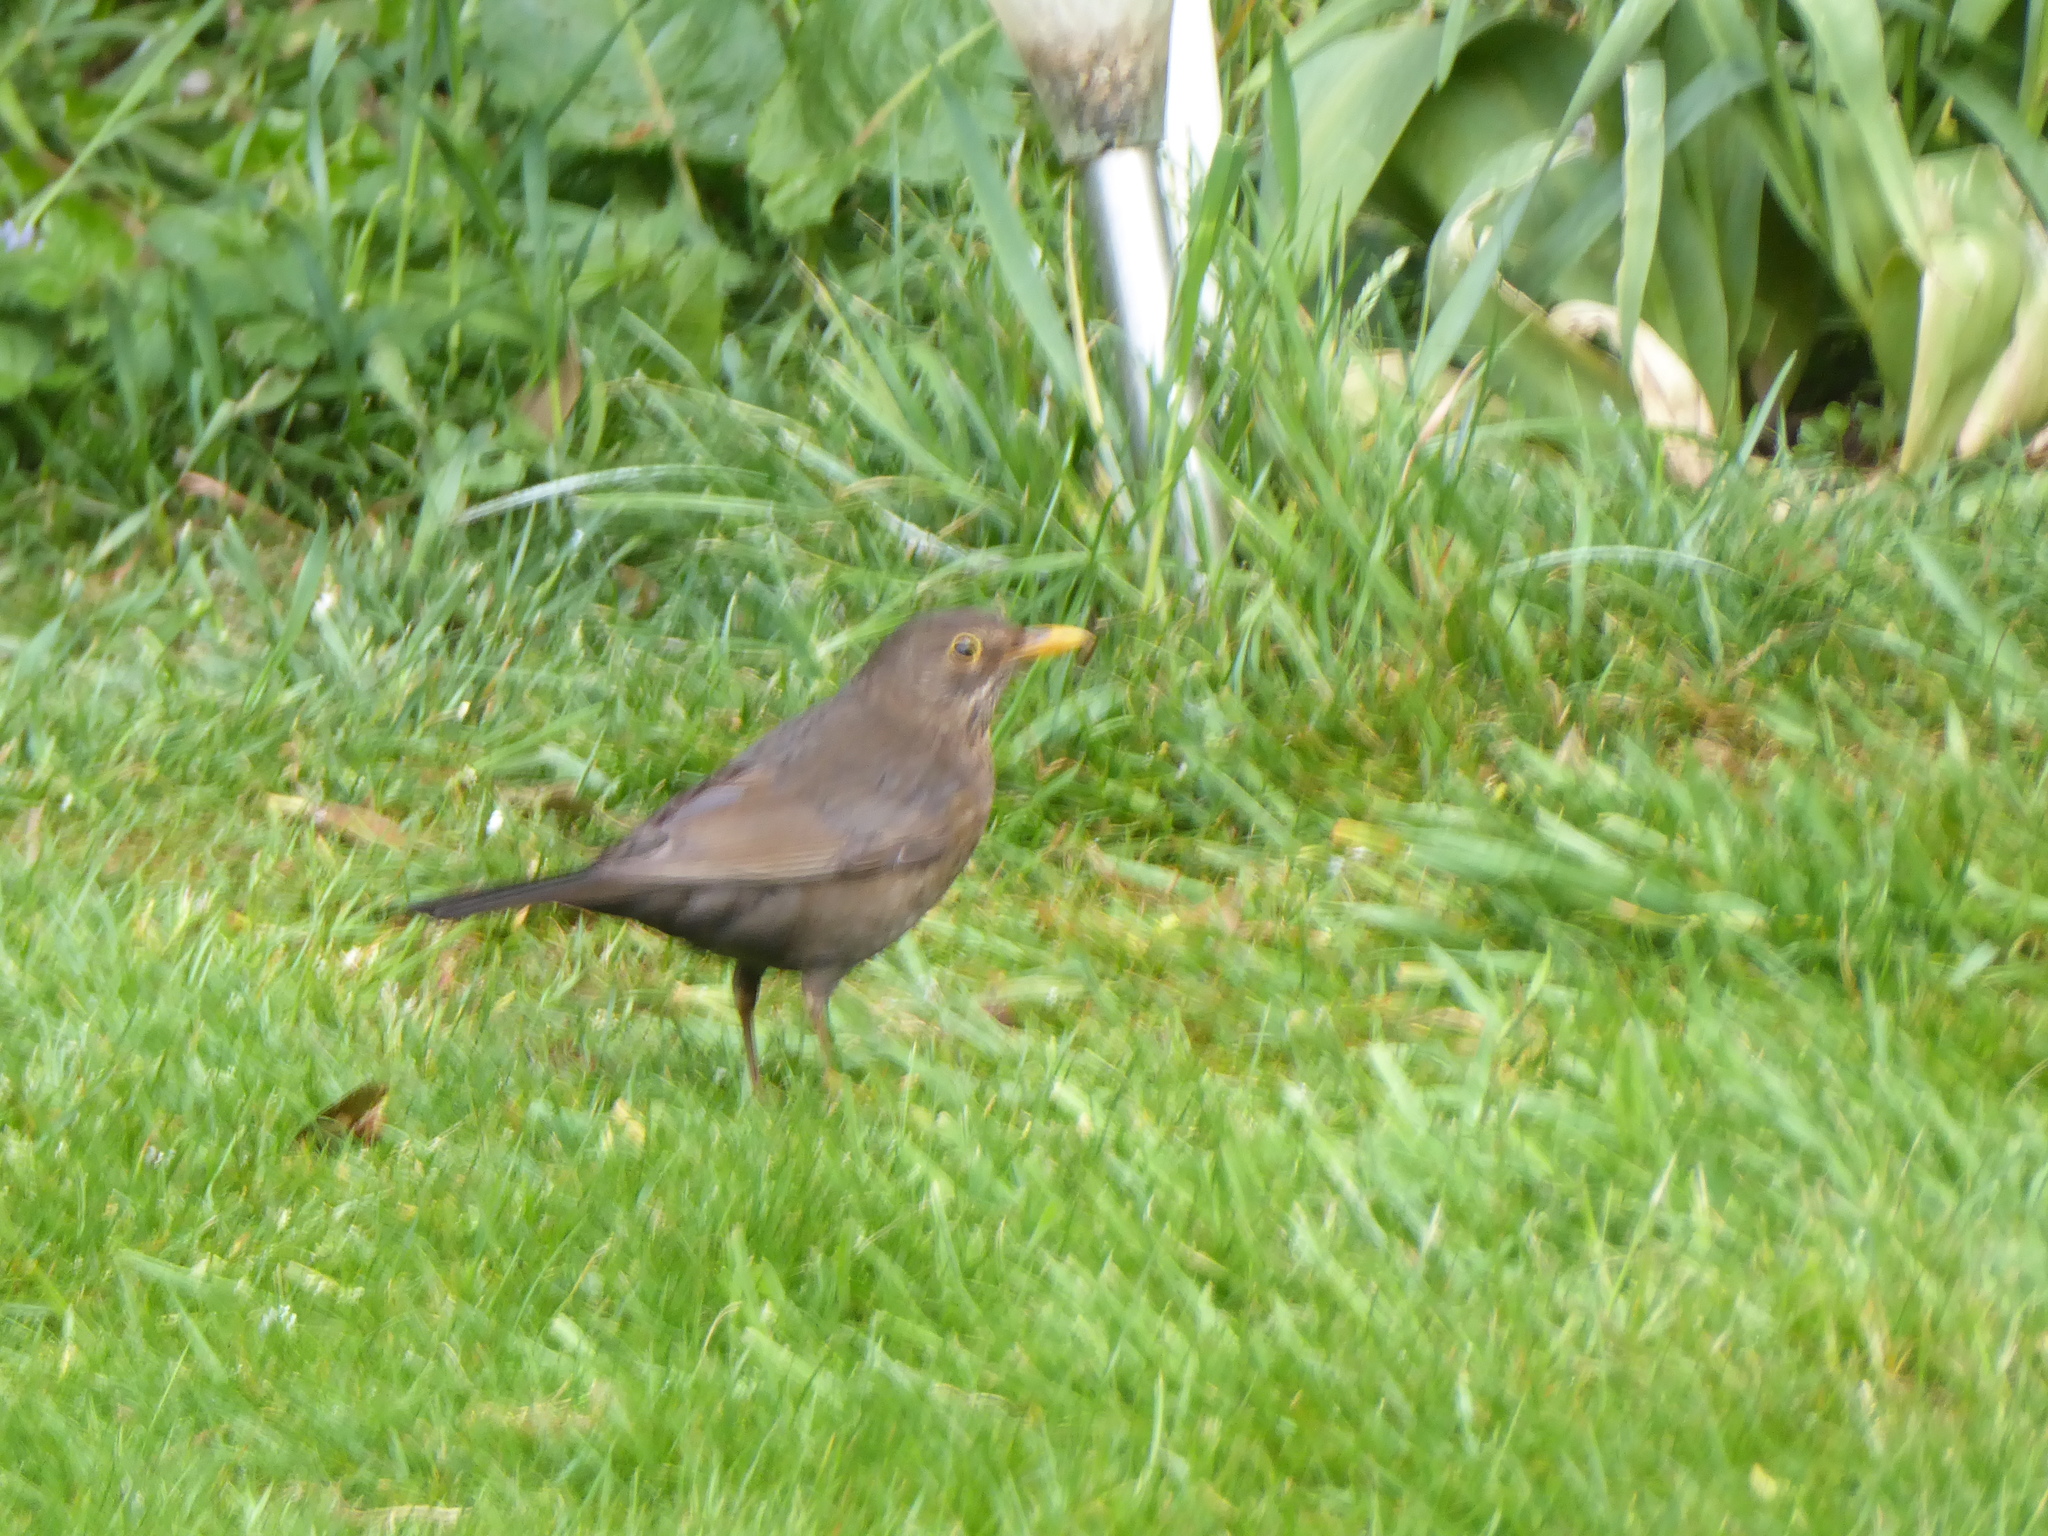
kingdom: Animalia
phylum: Chordata
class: Aves
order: Passeriformes
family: Turdidae
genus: Turdus
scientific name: Turdus merula
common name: Common blackbird
